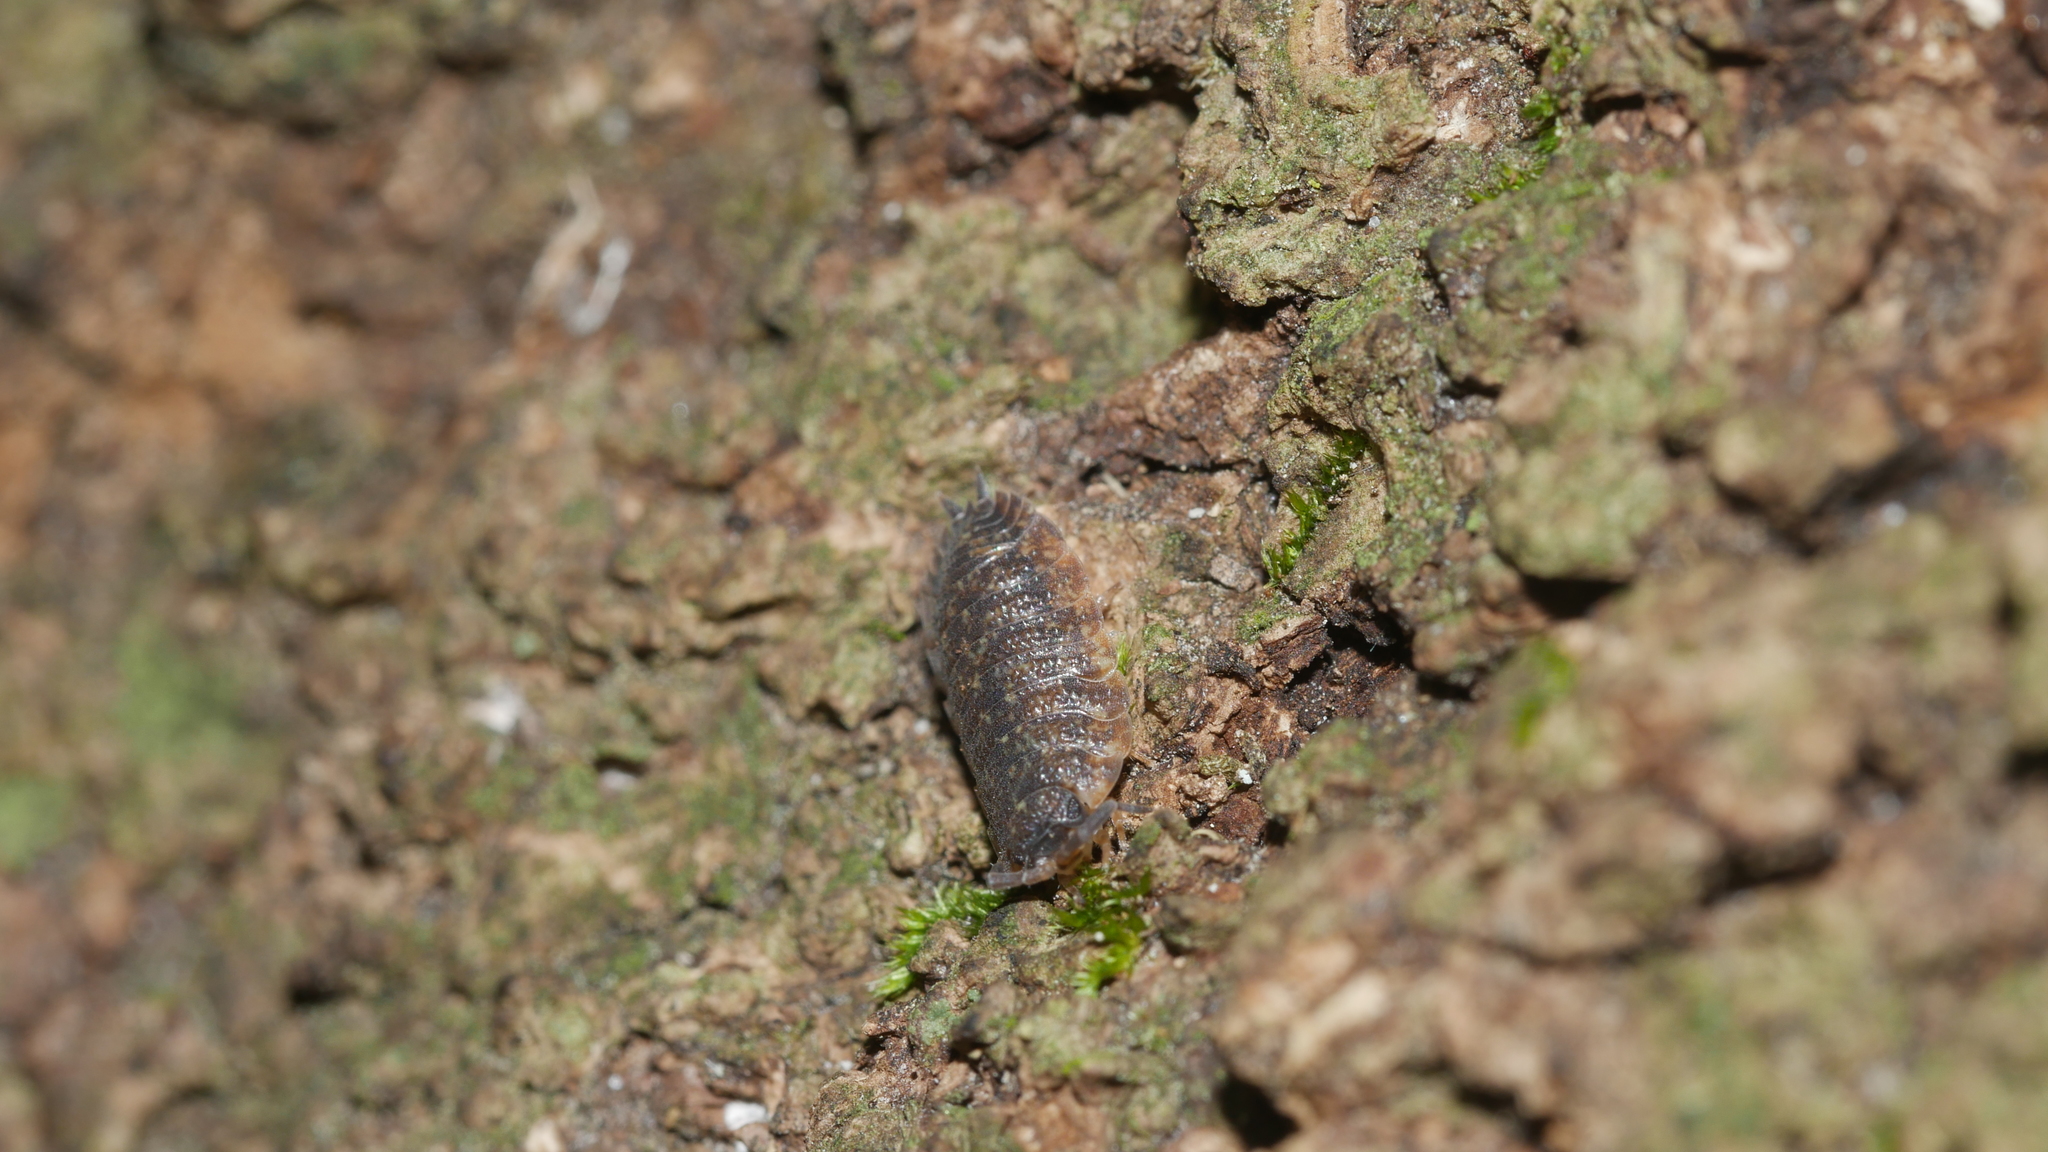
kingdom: Animalia
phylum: Arthropoda
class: Malacostraca
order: Isopoda
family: Porcellionidae
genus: Porcellio
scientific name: Porcellio scaber
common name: Common rough woodlouse
